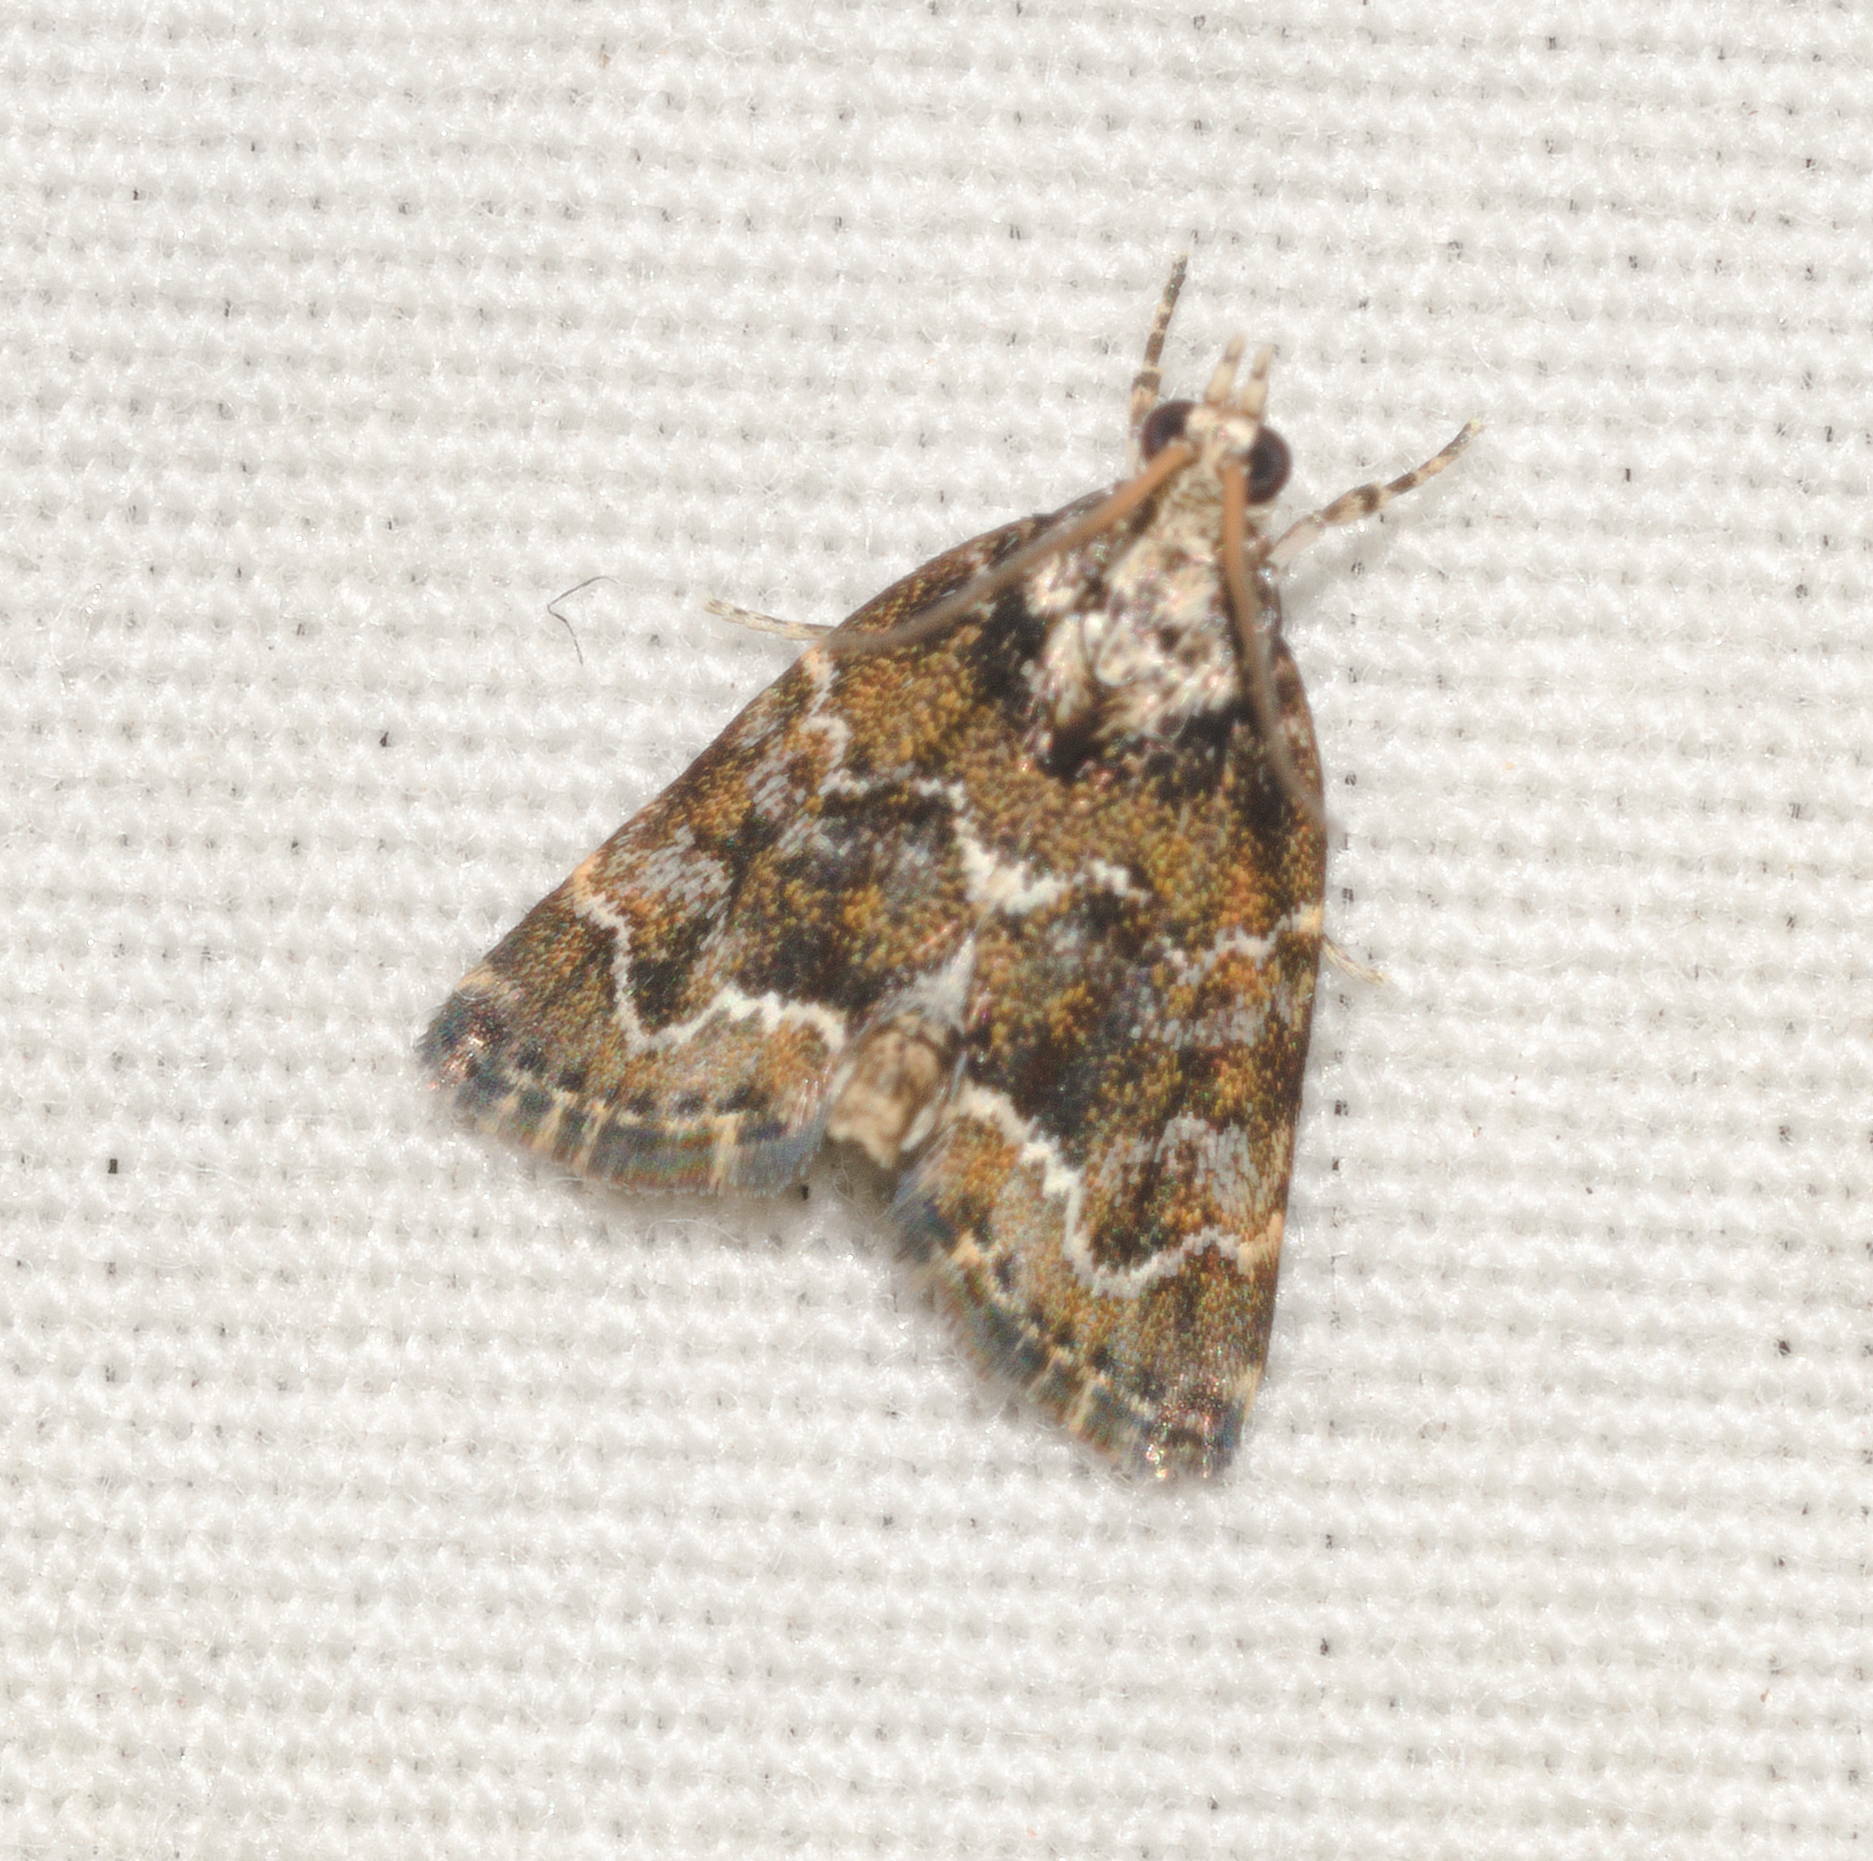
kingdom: Animalia
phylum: Arthropoda
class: Insecta
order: Lepidoptera
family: Crambidae
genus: Mestolobes
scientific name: Mestolobes abnormis
